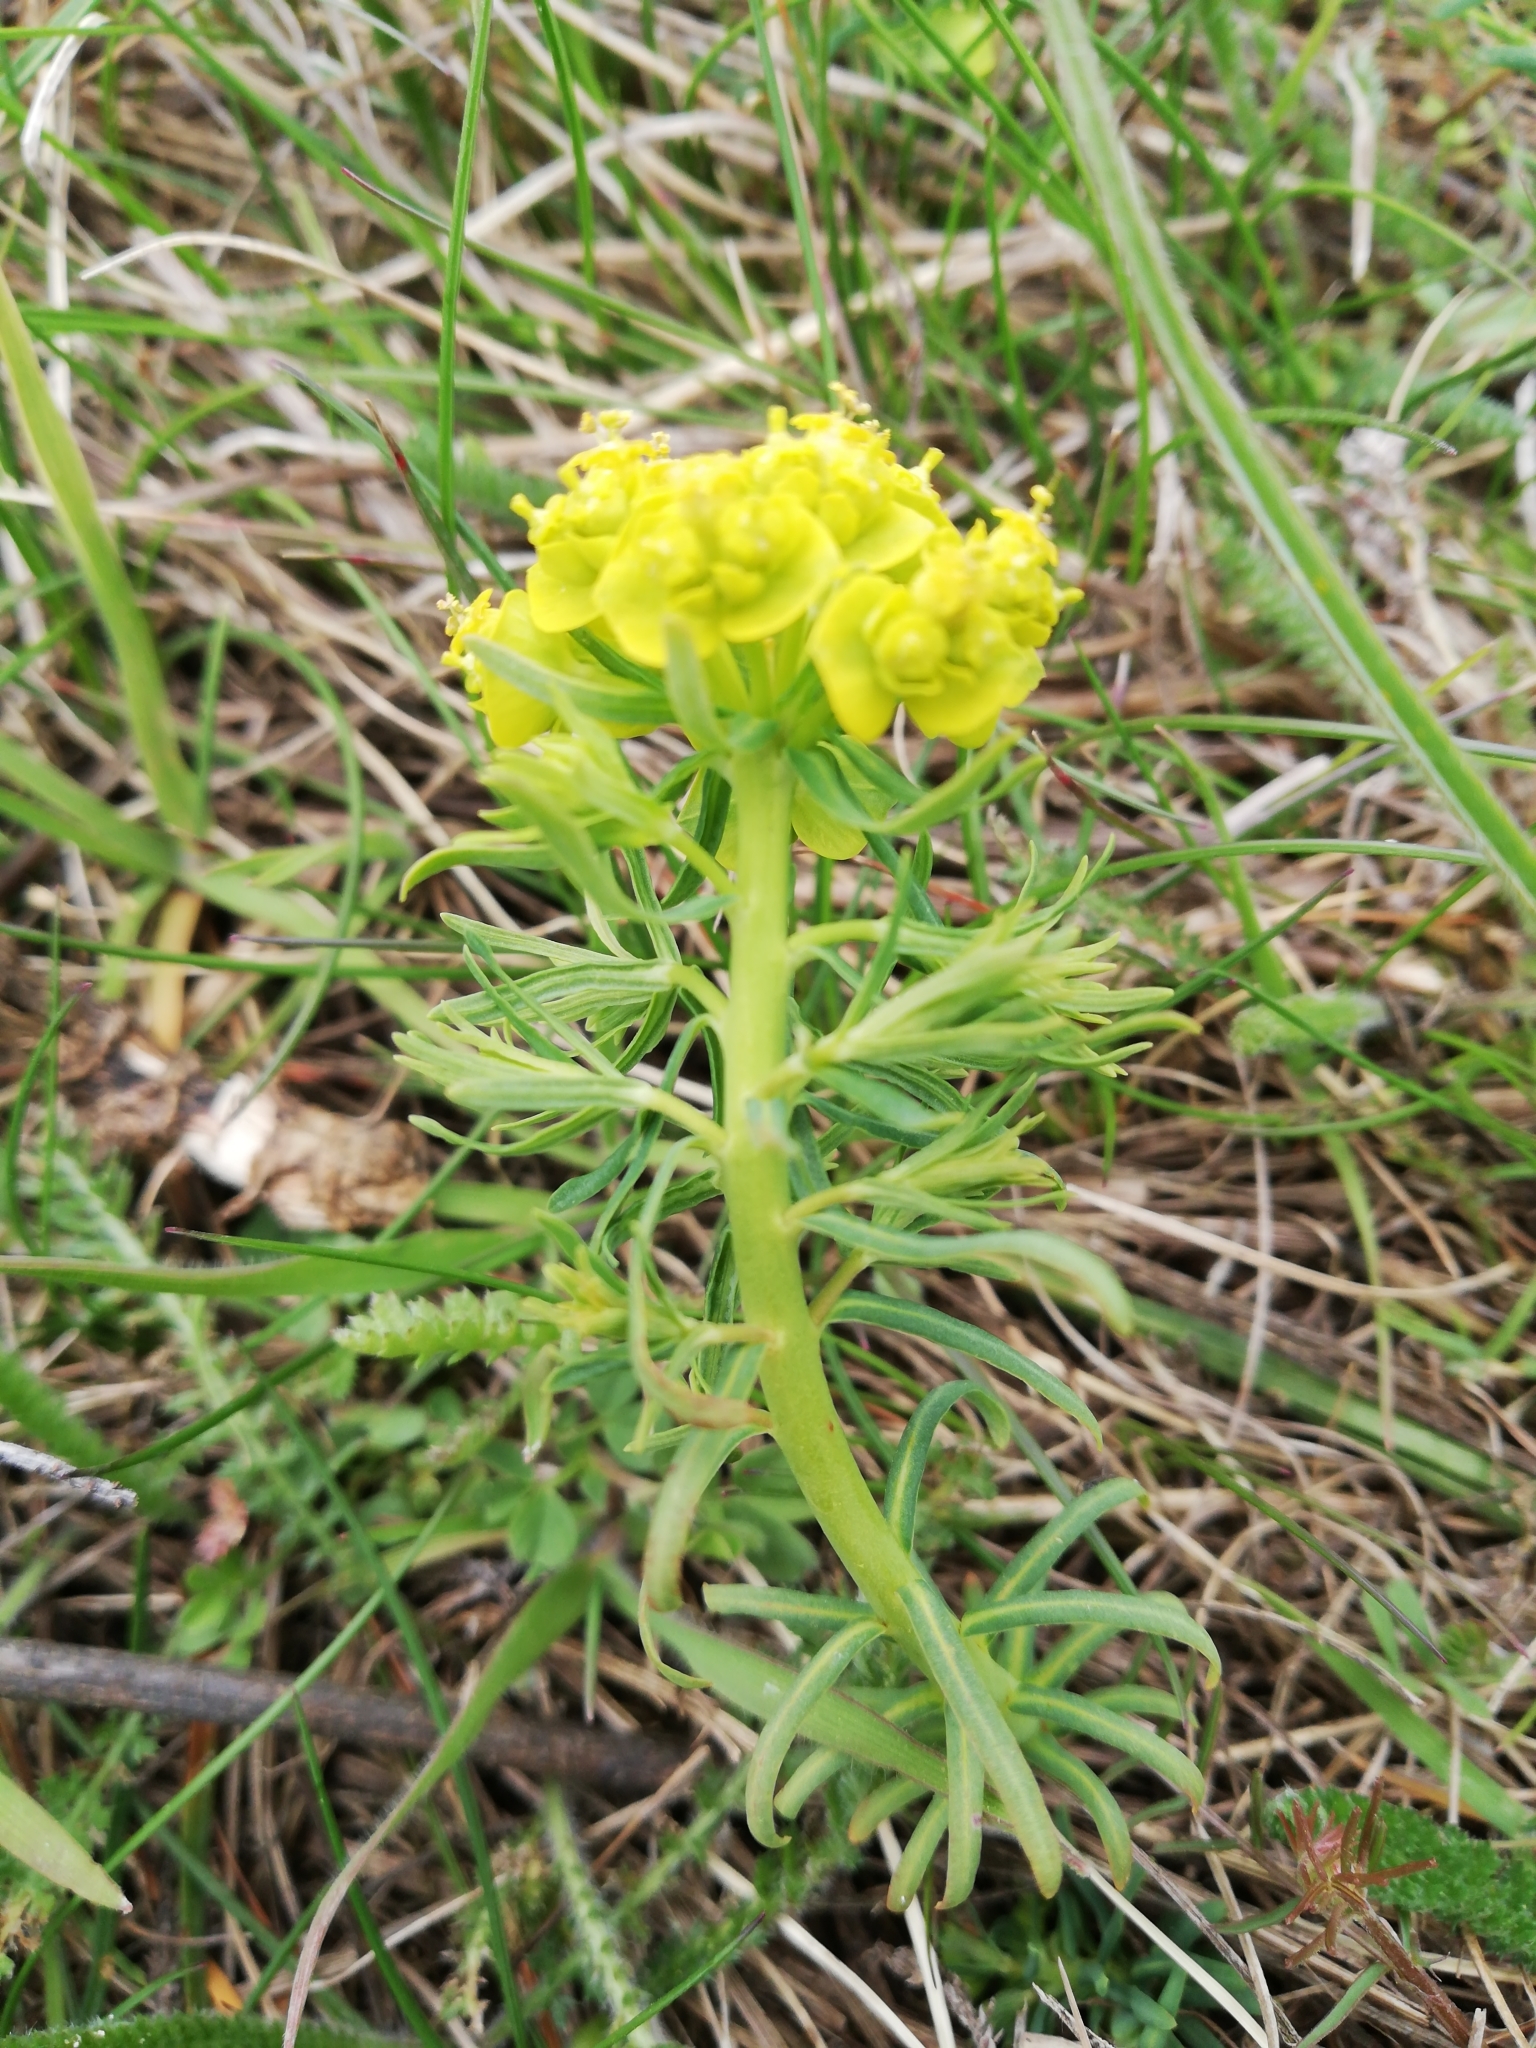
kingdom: Plantae
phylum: Tracheophyta
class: Magnoliopsida
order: Malpighiales
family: Euphorbiaceae
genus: Euphorbia
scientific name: Euphorbia cyparissias
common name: Cypress spurge
